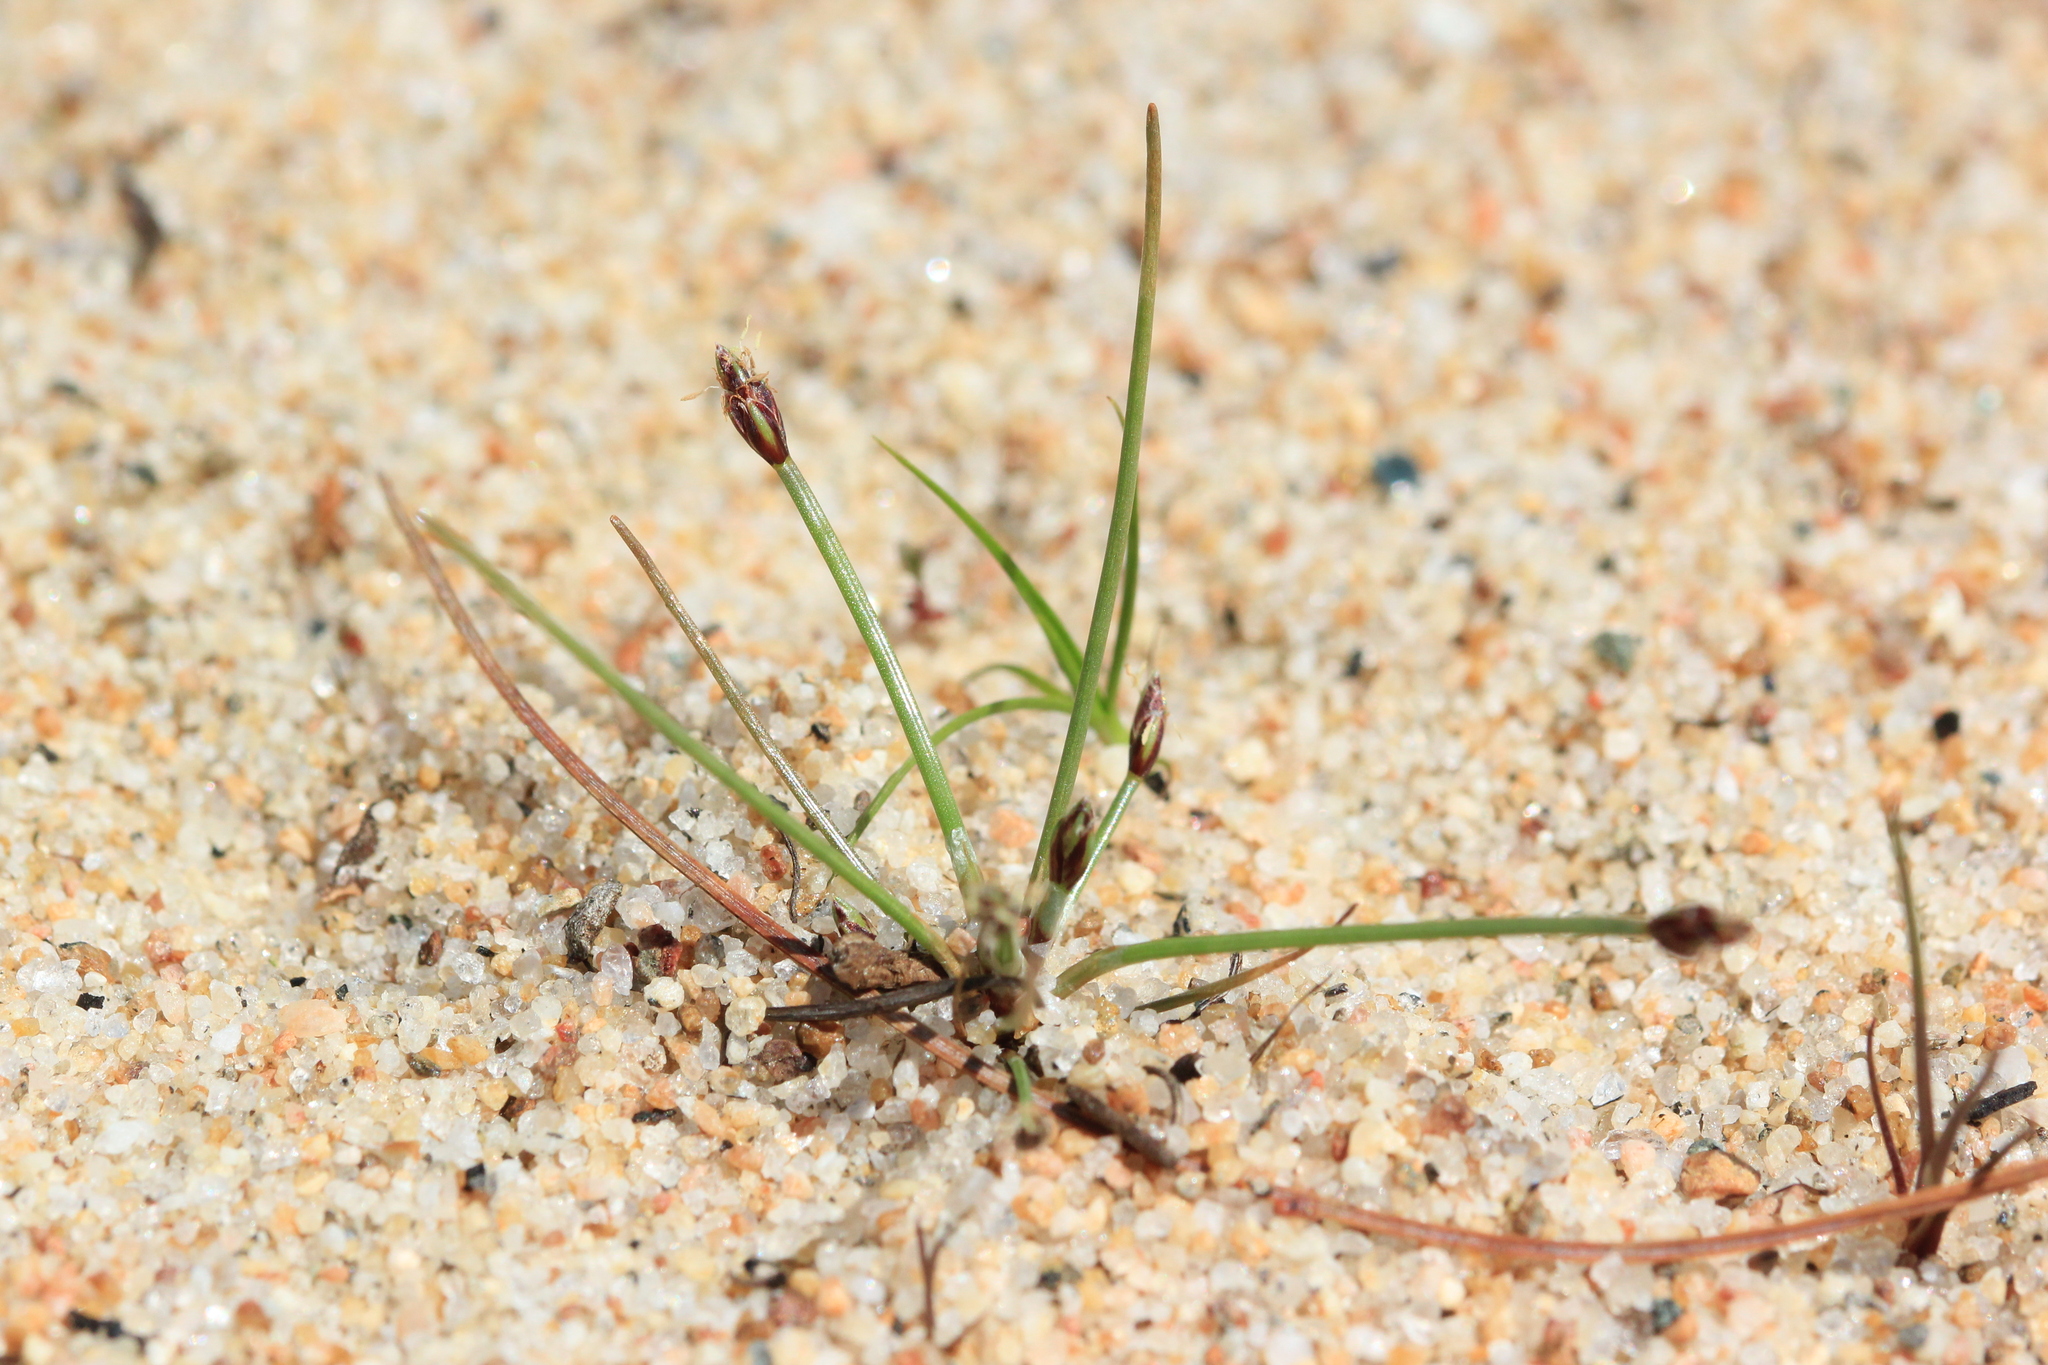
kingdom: Plantae
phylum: Tracheophyta
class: Liliopsida
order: Poales
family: Cyperaceae
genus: Eleocharis
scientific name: Eleocharis flavescens
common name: Yellow spikerush
